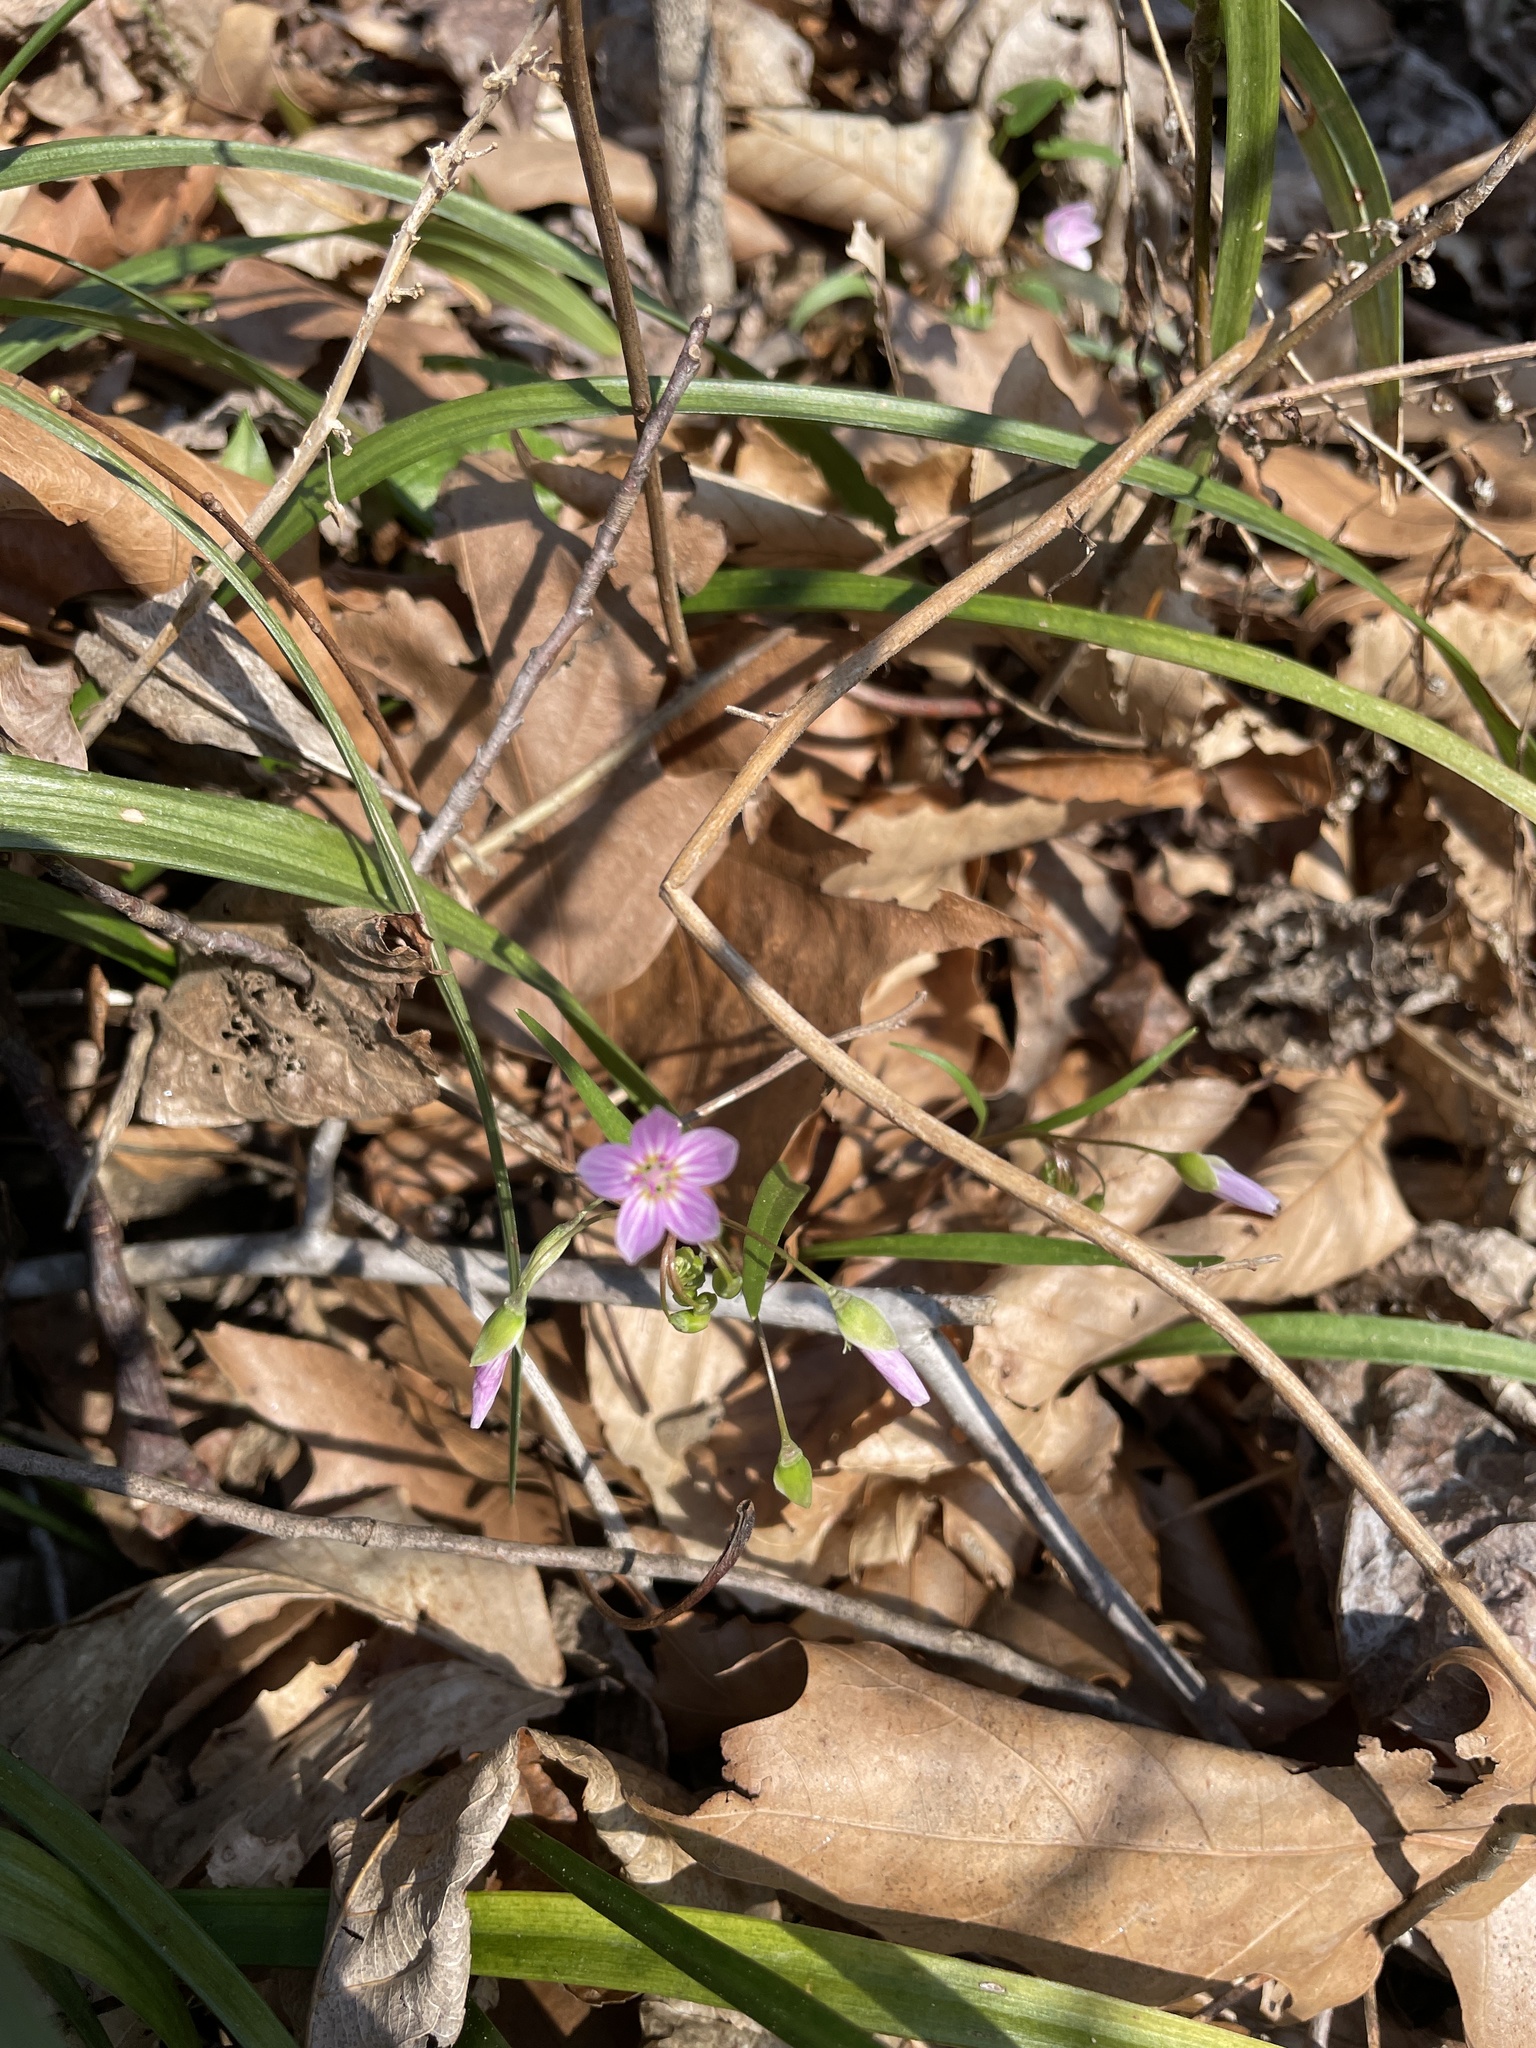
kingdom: Plantae
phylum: Tracheophyta
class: Magnoliopsida
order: Caryophyllales
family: Montiaceae
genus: Claytonia
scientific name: Claytonia virginica
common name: Virginia springbeauty
